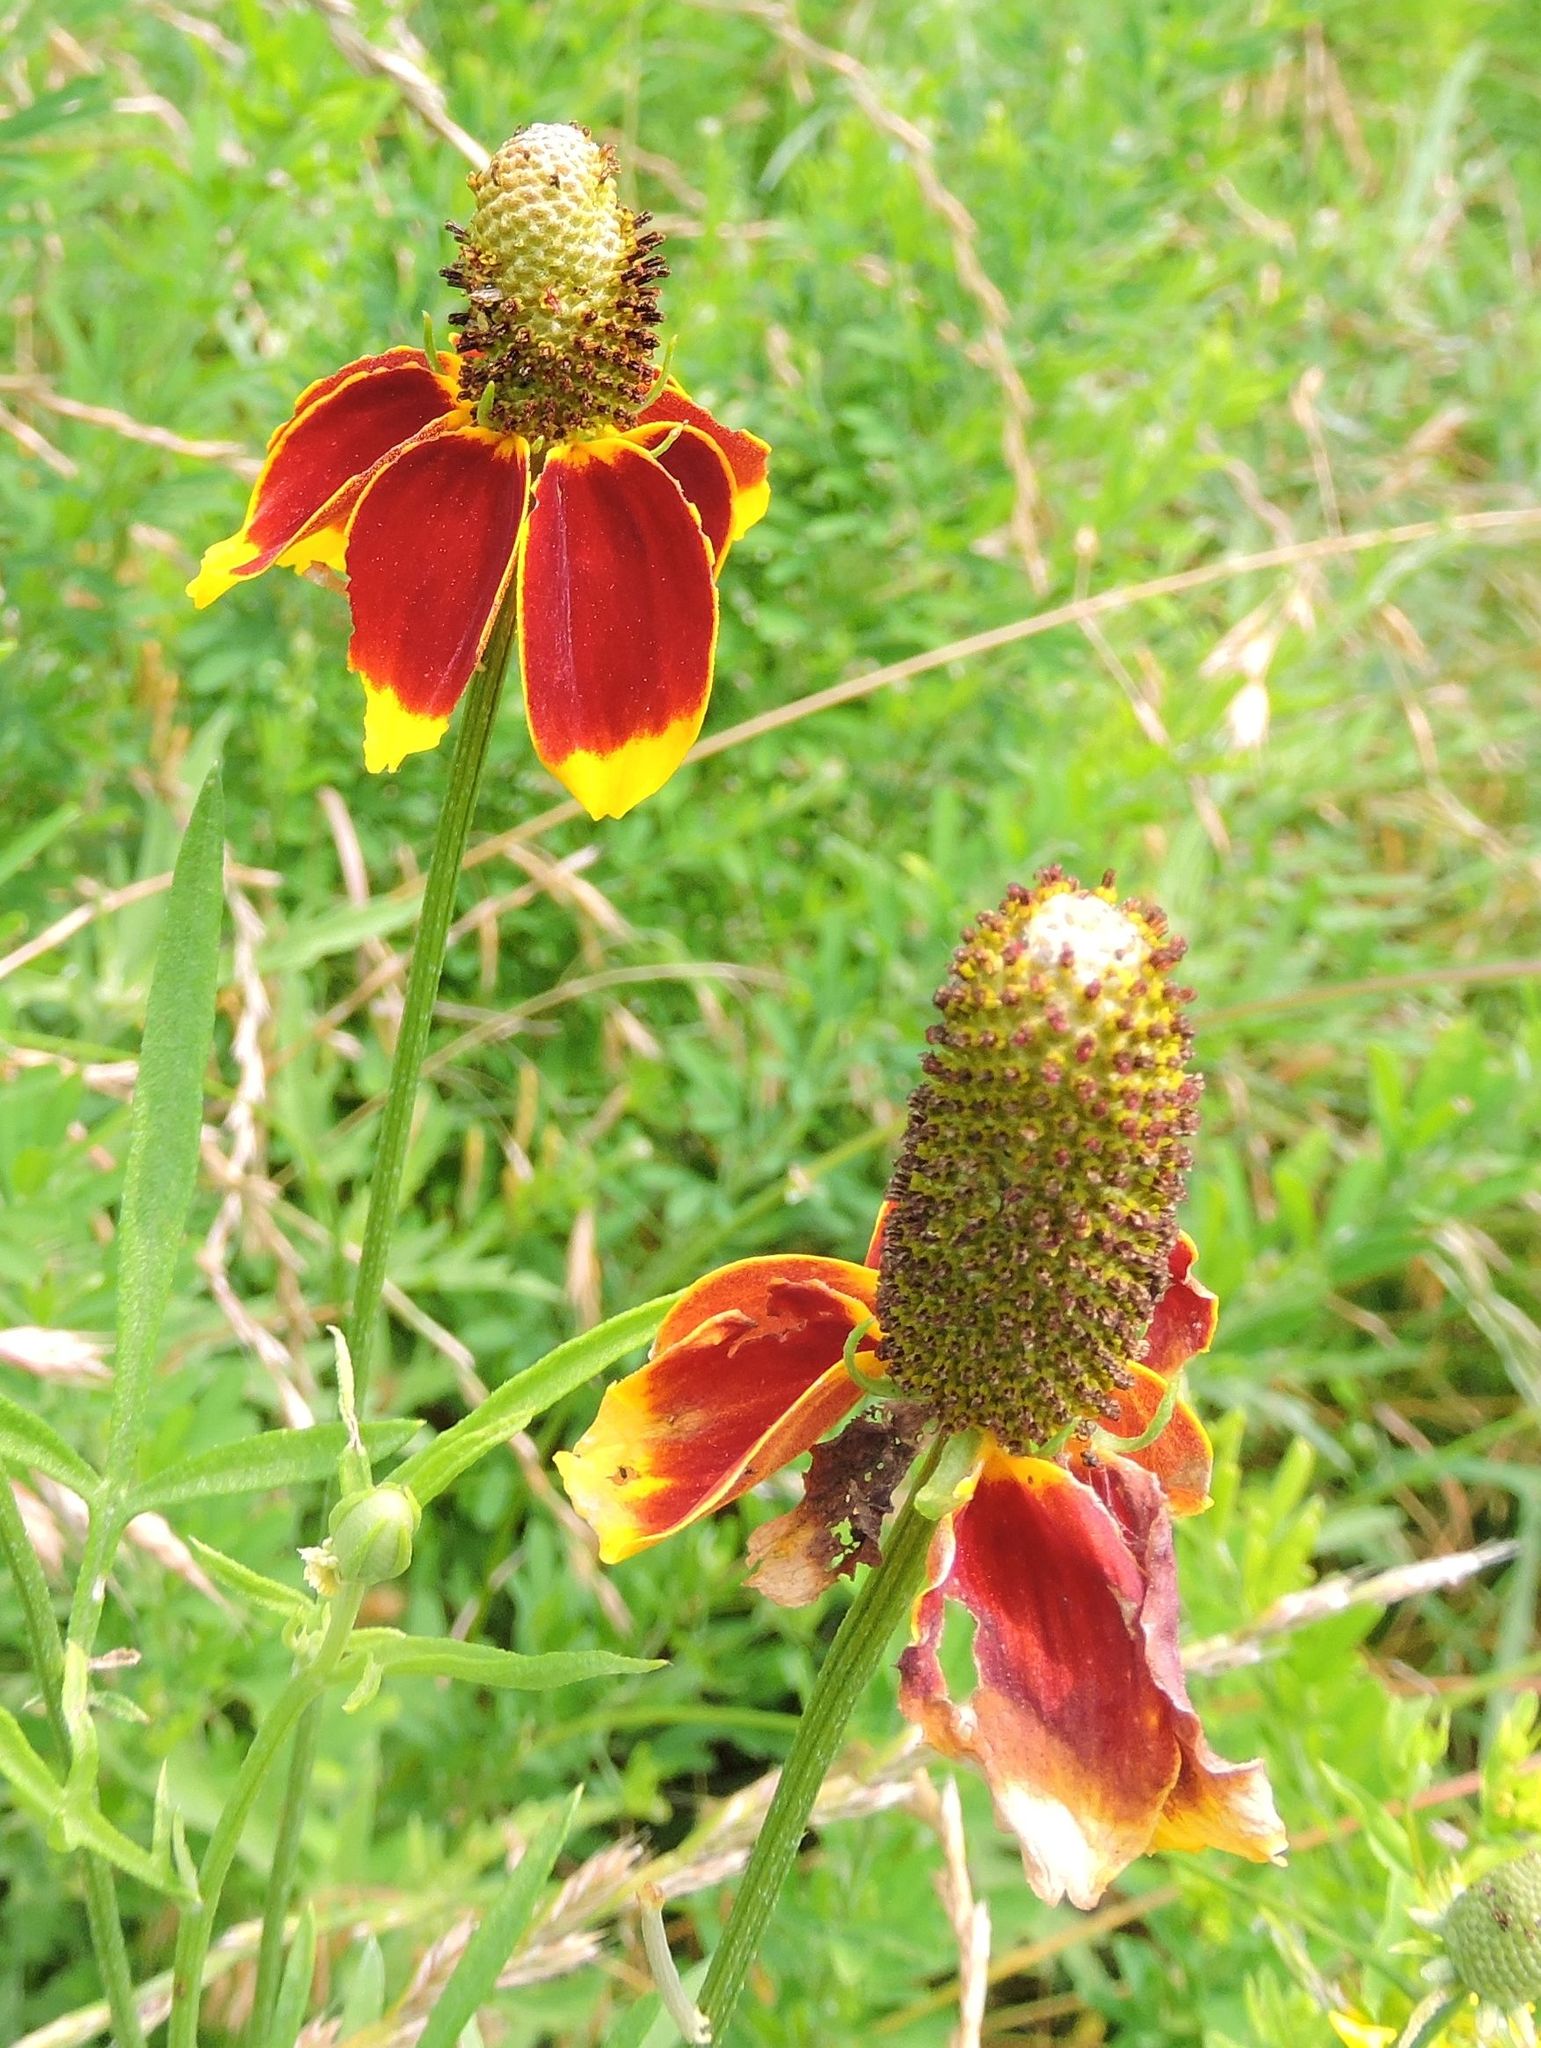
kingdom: Plantae
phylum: Tracheophyta
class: Magnoliopsida
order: Asterales
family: Asteraceae
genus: Ratibida
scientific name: Ratibida columnifera
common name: Prairie coneflower
